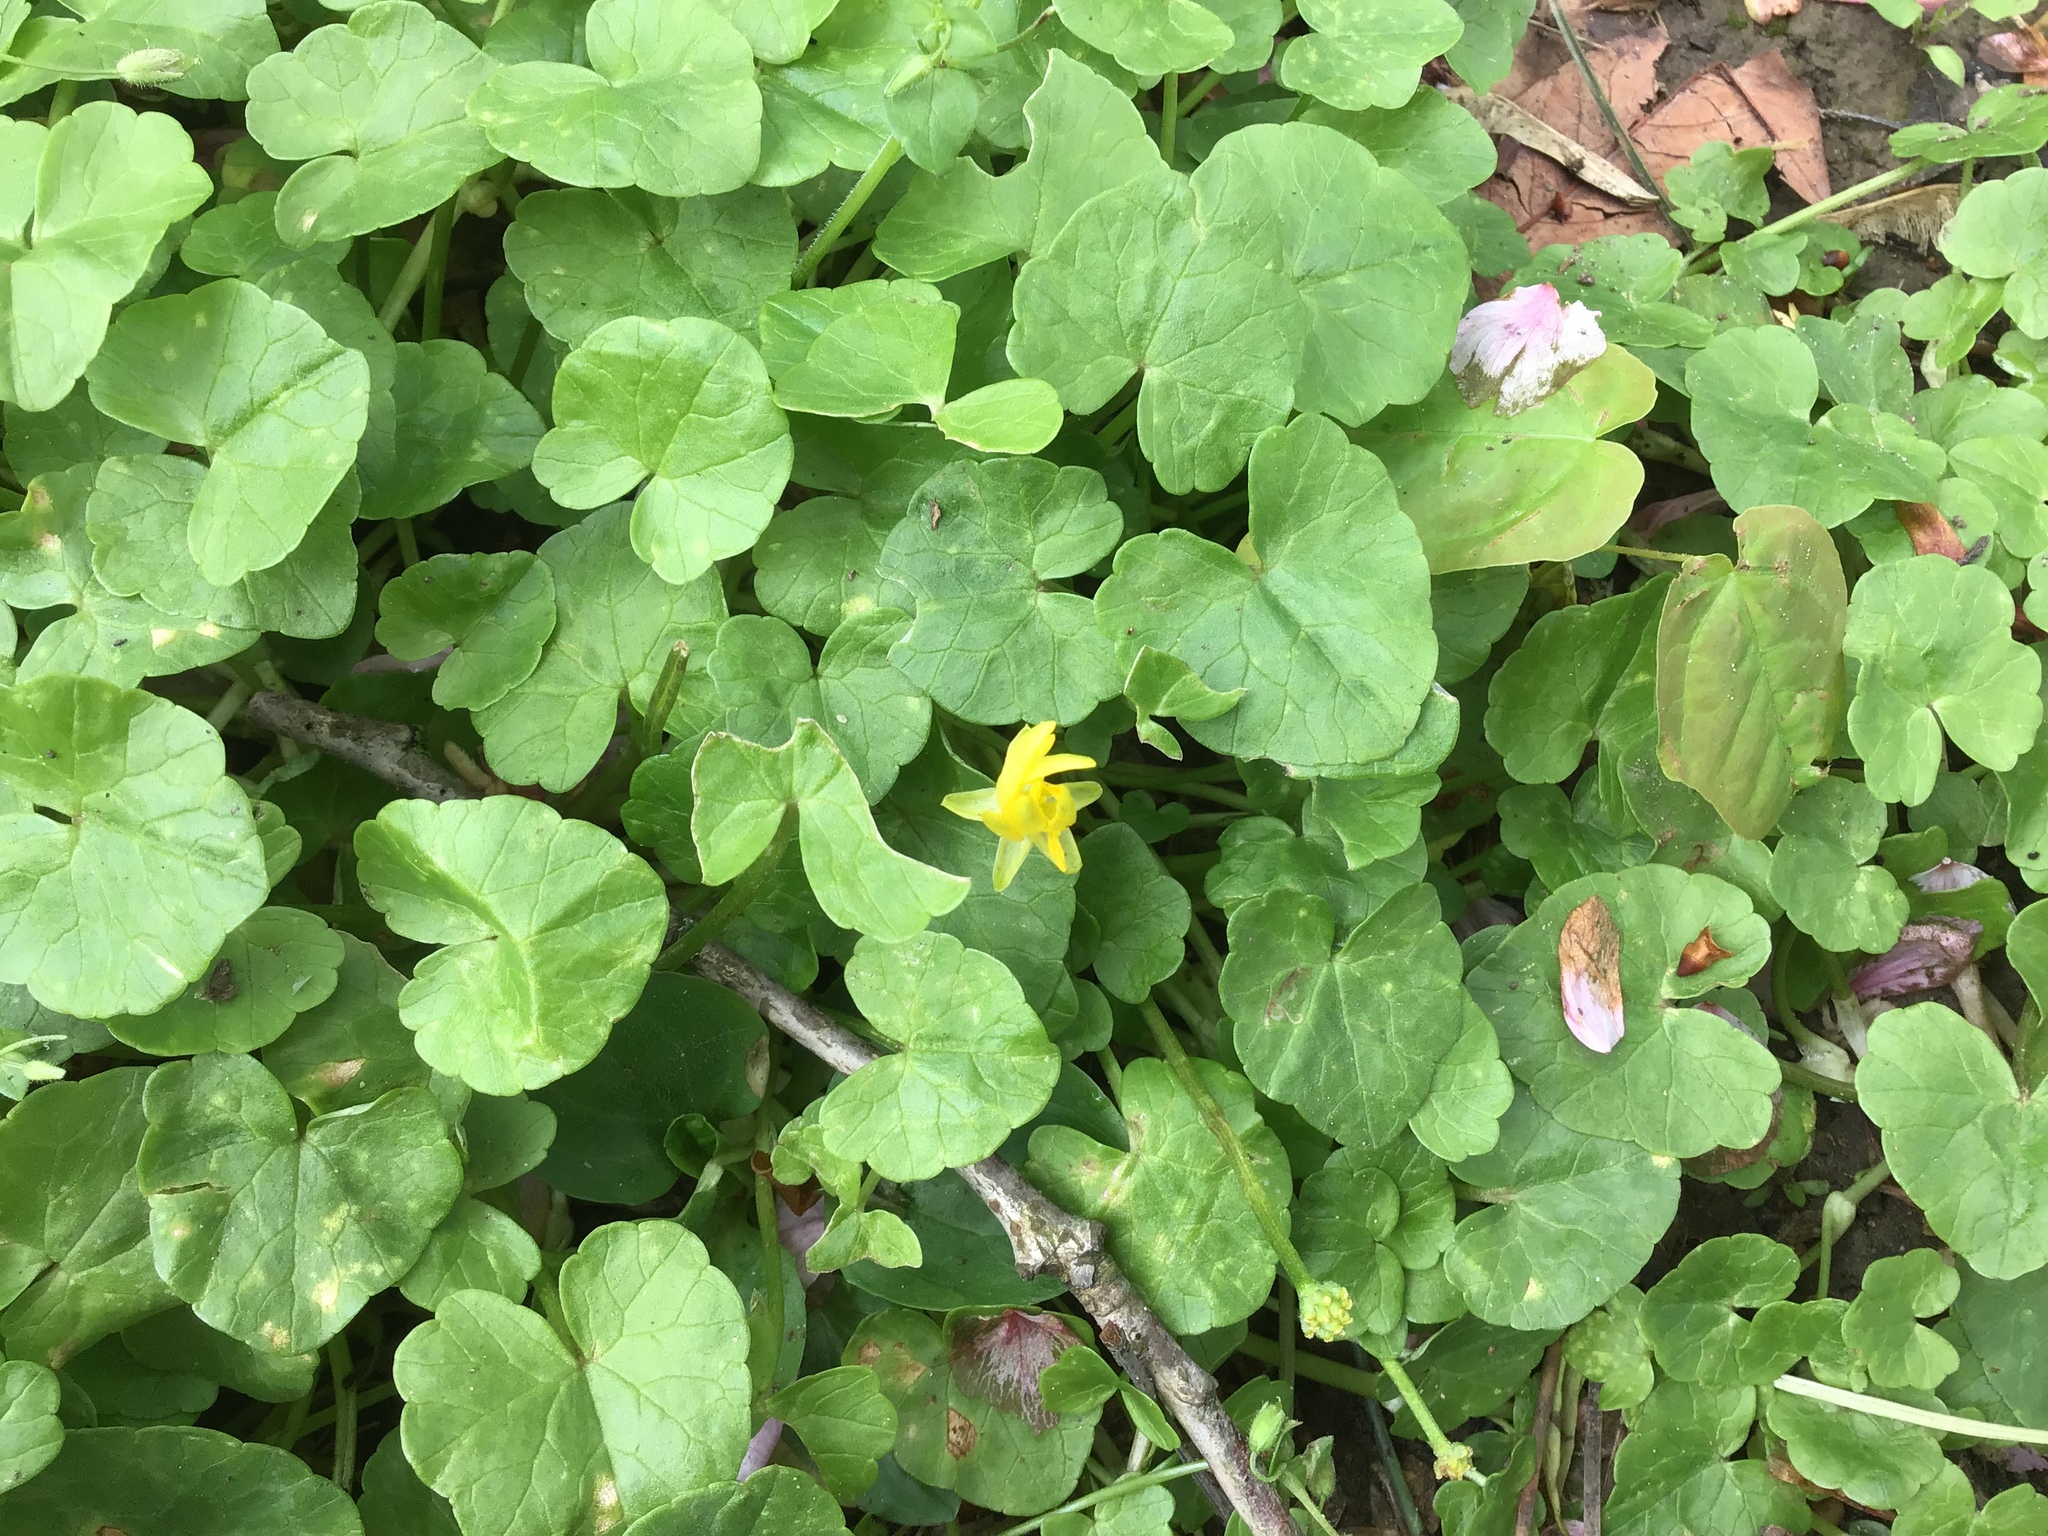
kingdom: Plantae
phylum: Tracheophyta
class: Magnoliopsida
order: Ranunculales
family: Ranunculaceae
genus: Ficaria
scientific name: Ficaria verna
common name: Lesser celandine
